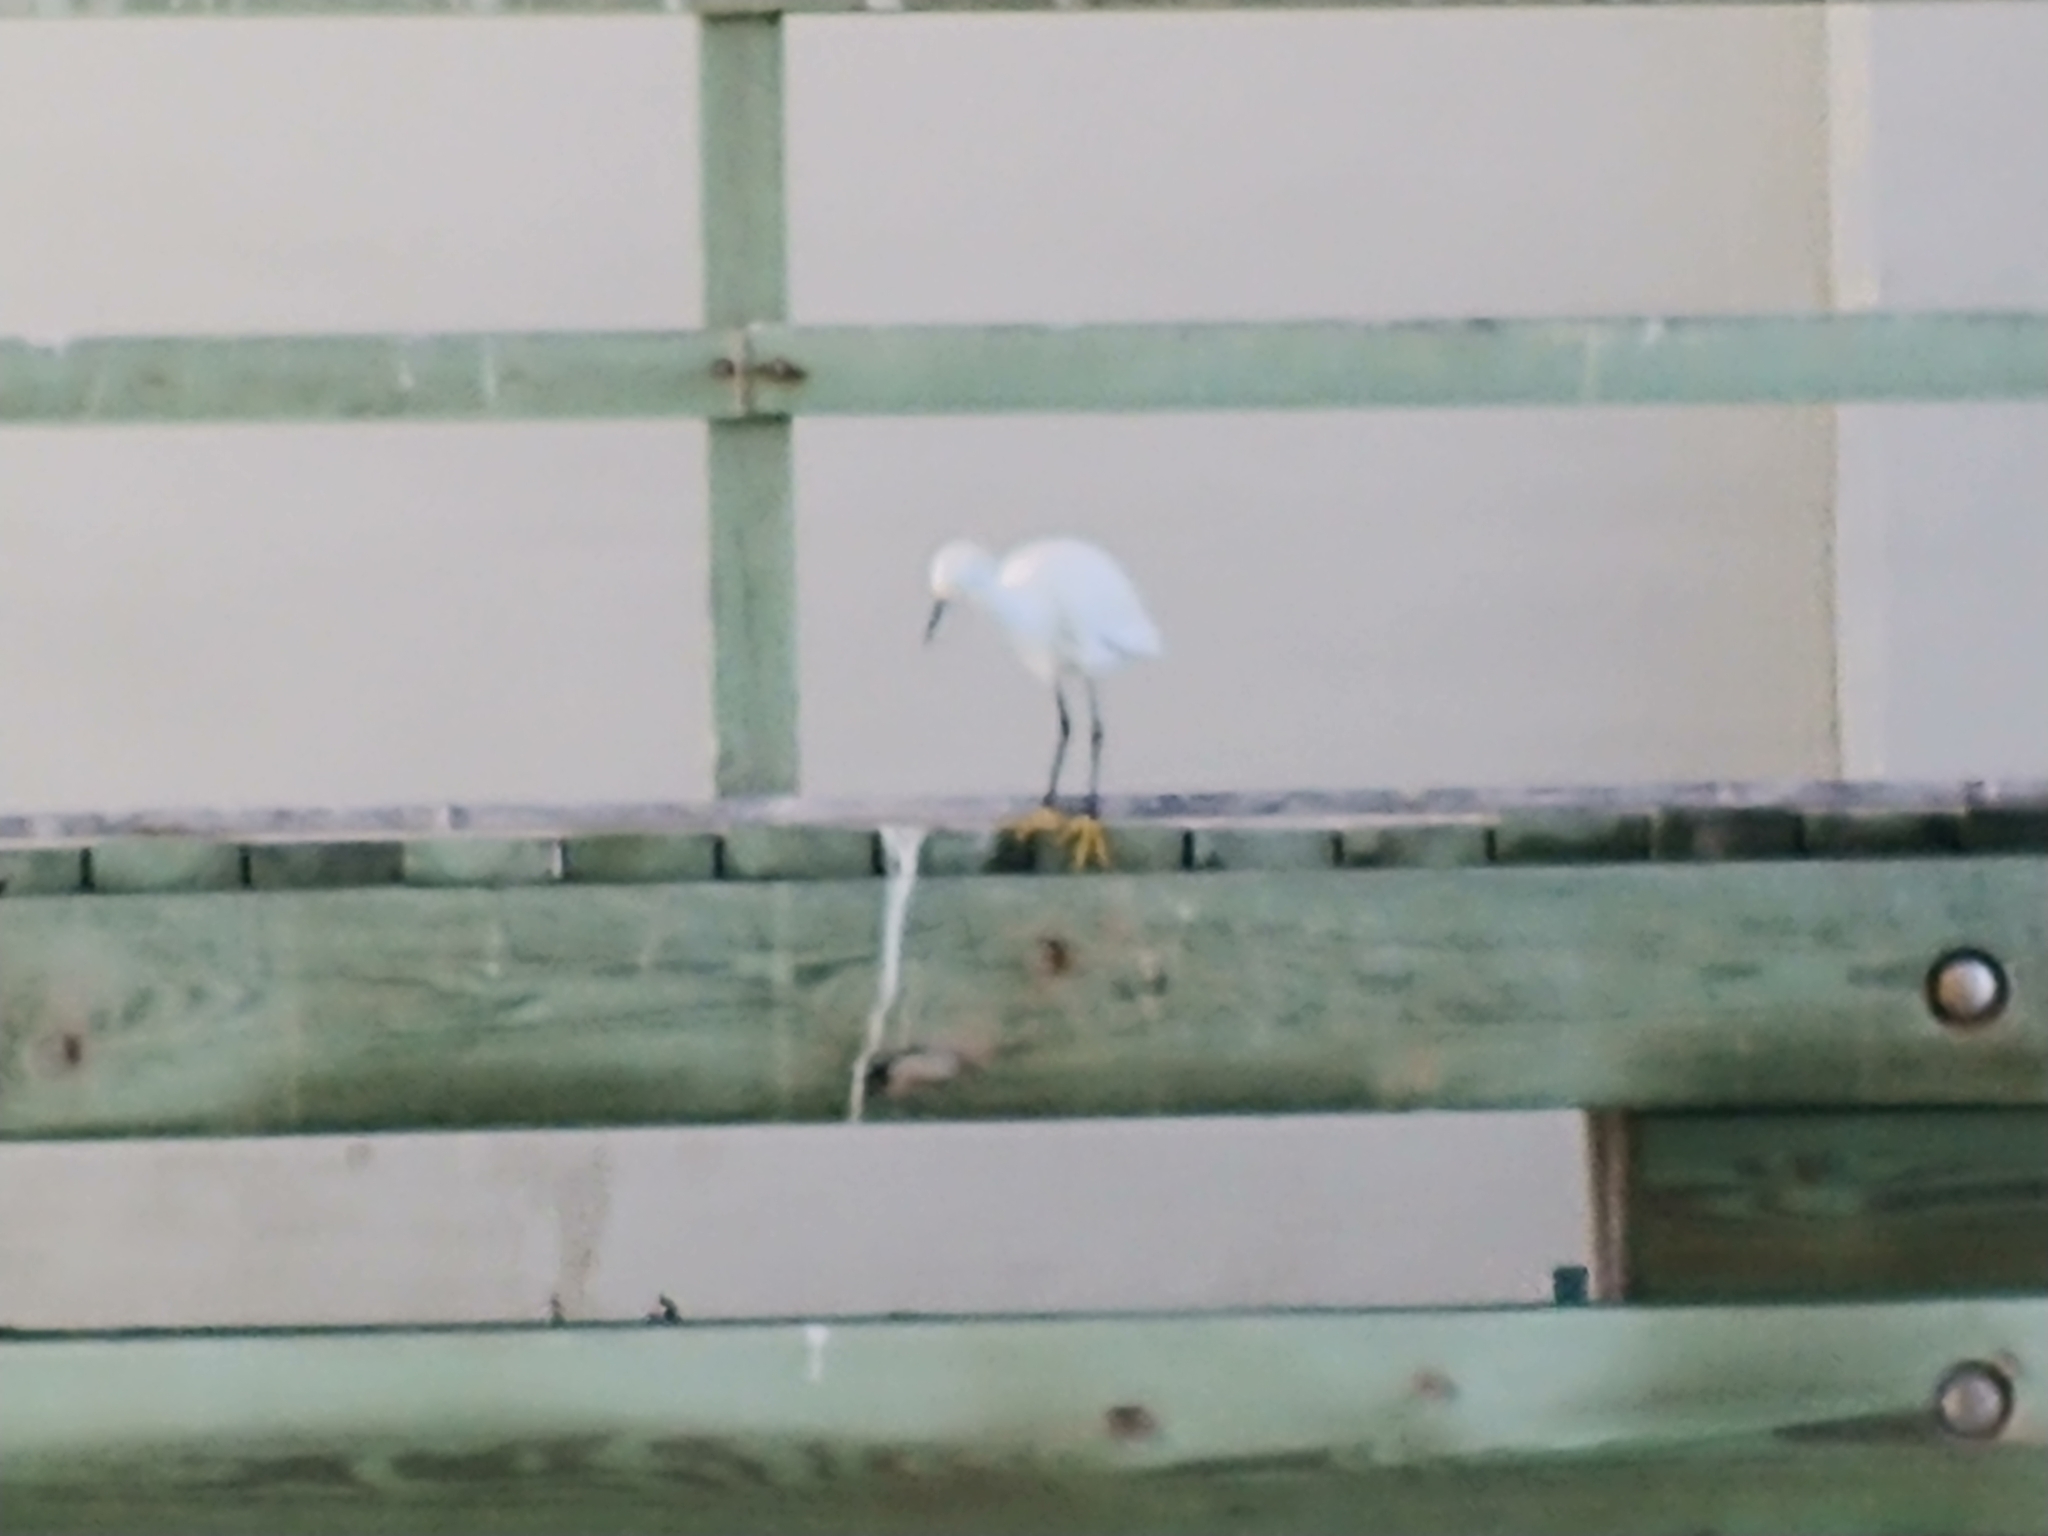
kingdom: Animalia
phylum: Chordata
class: Aves
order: Pelecaniformes
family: Ardeidae
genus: Egretta
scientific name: Egretta thula
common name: Snowy egret
